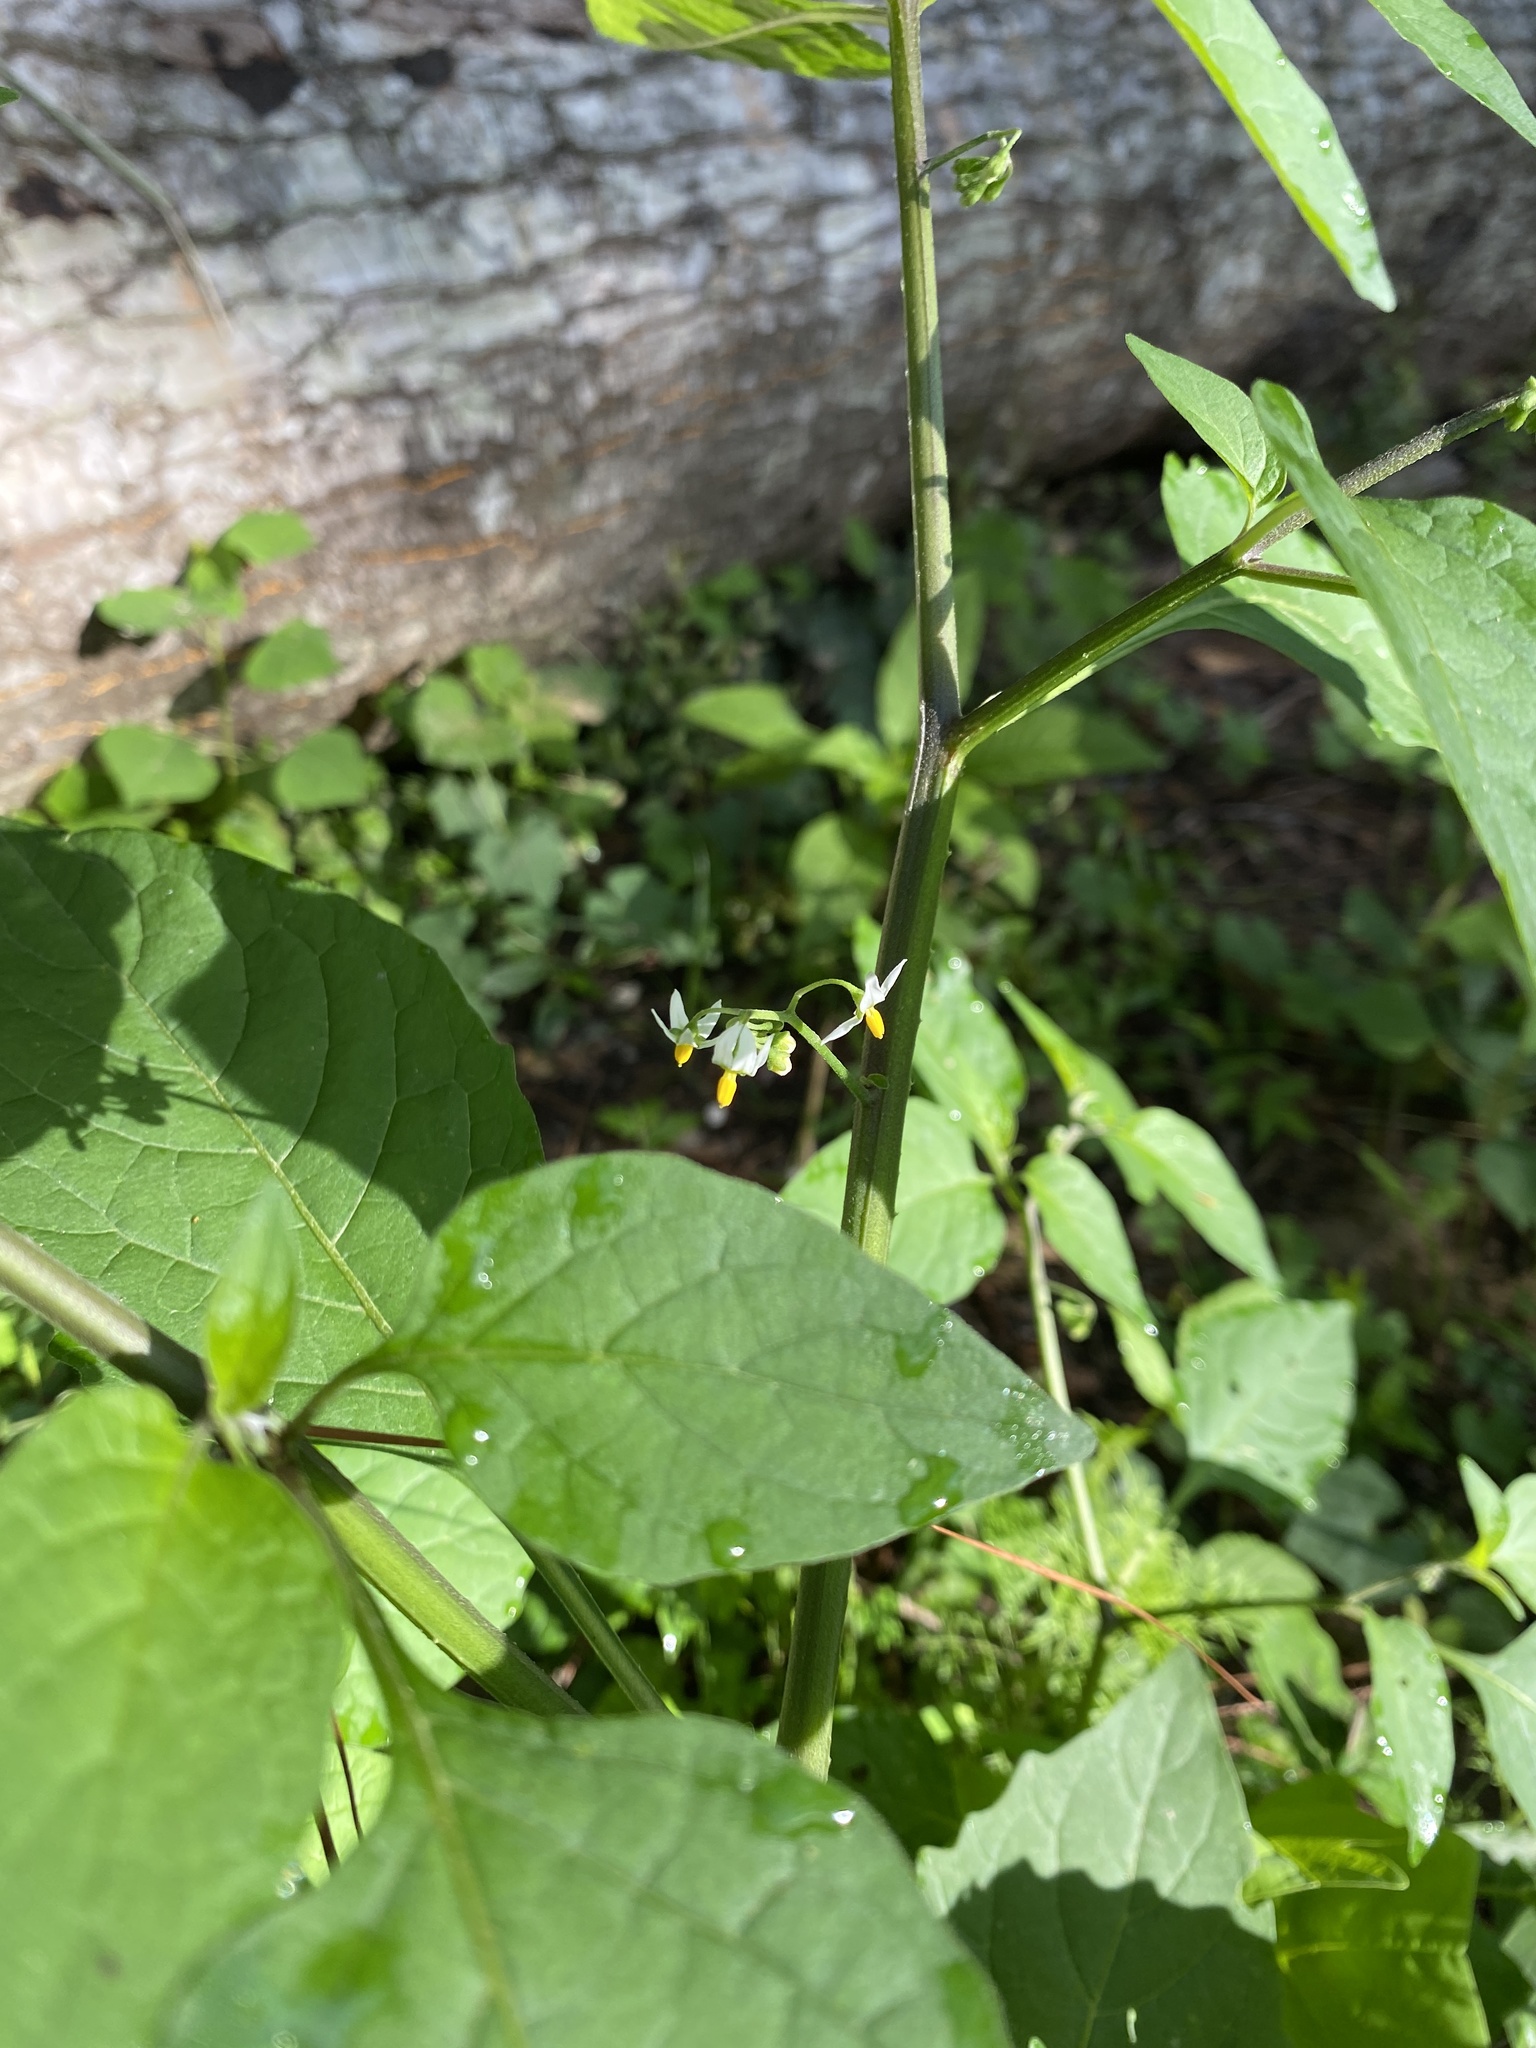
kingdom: Plantae
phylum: Tracheophyta
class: Magnoliopsida
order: Solanales
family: Solanaceae
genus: Solanum
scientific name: Solanum pseudogracile
